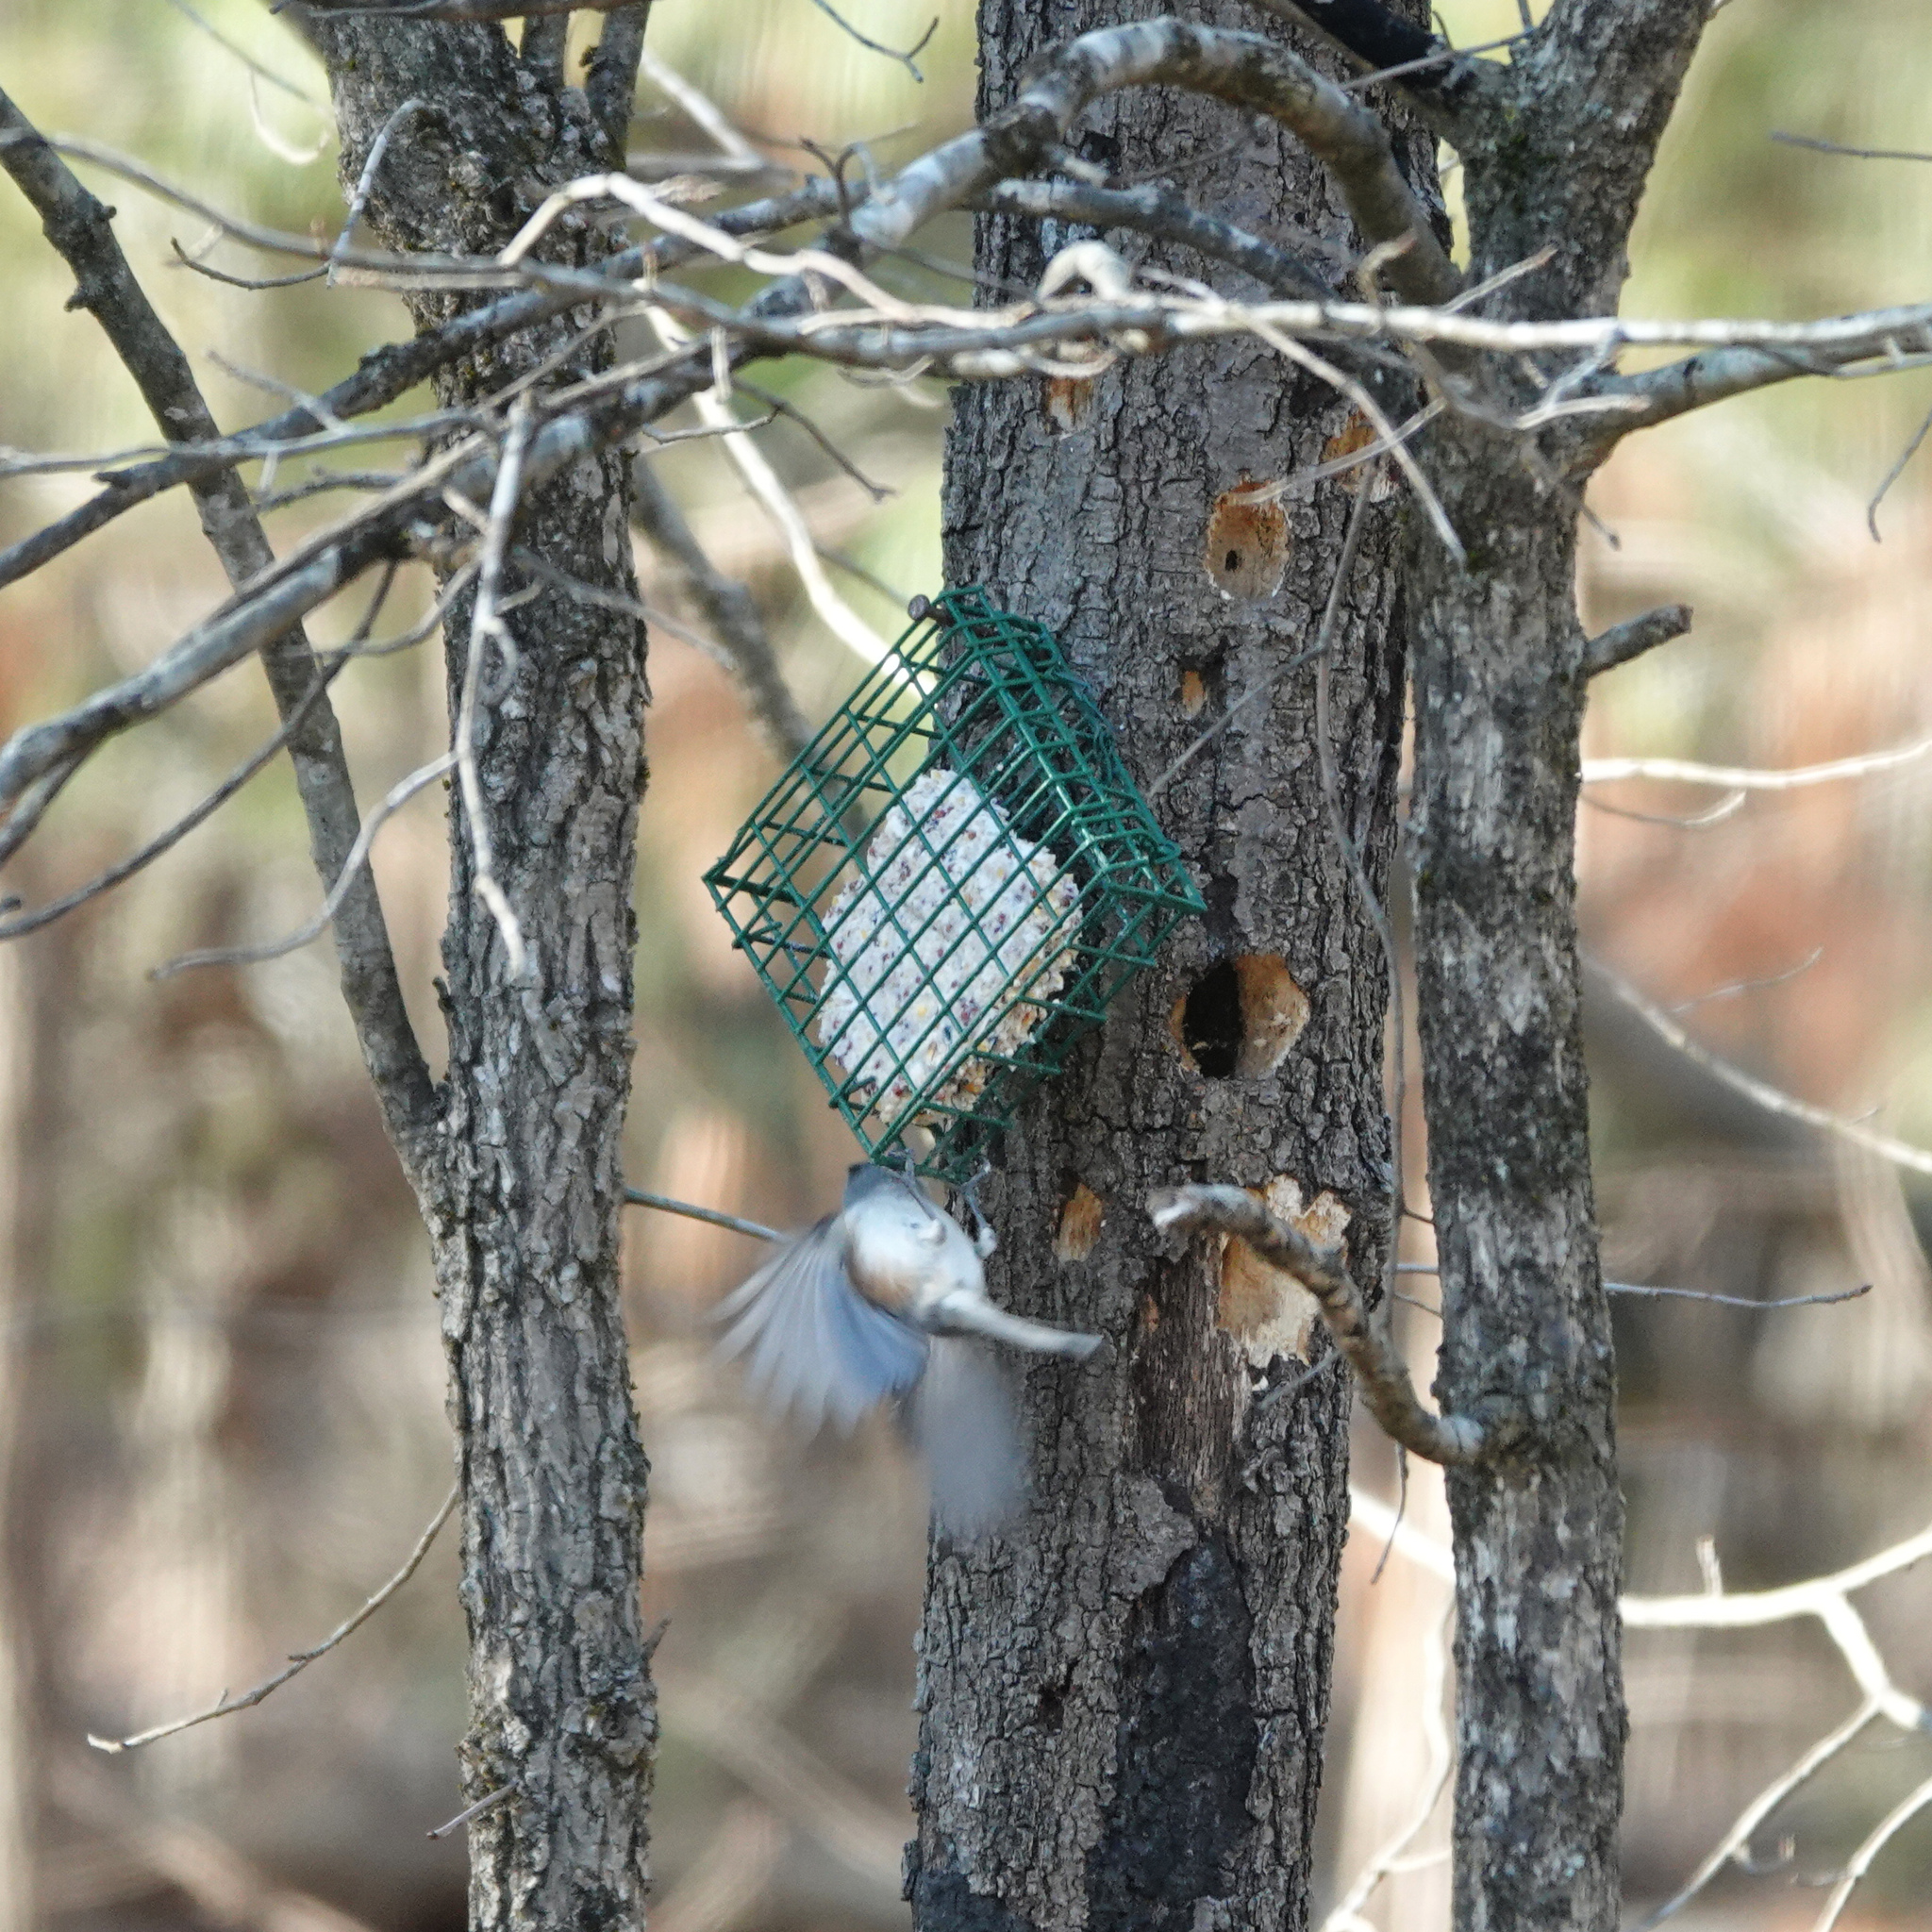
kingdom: Animalia
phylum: Chordata
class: Aves
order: Passeriformes
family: Paridae
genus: Baeolophus
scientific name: Baeolophus bicolor
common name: Tufted titmouse
